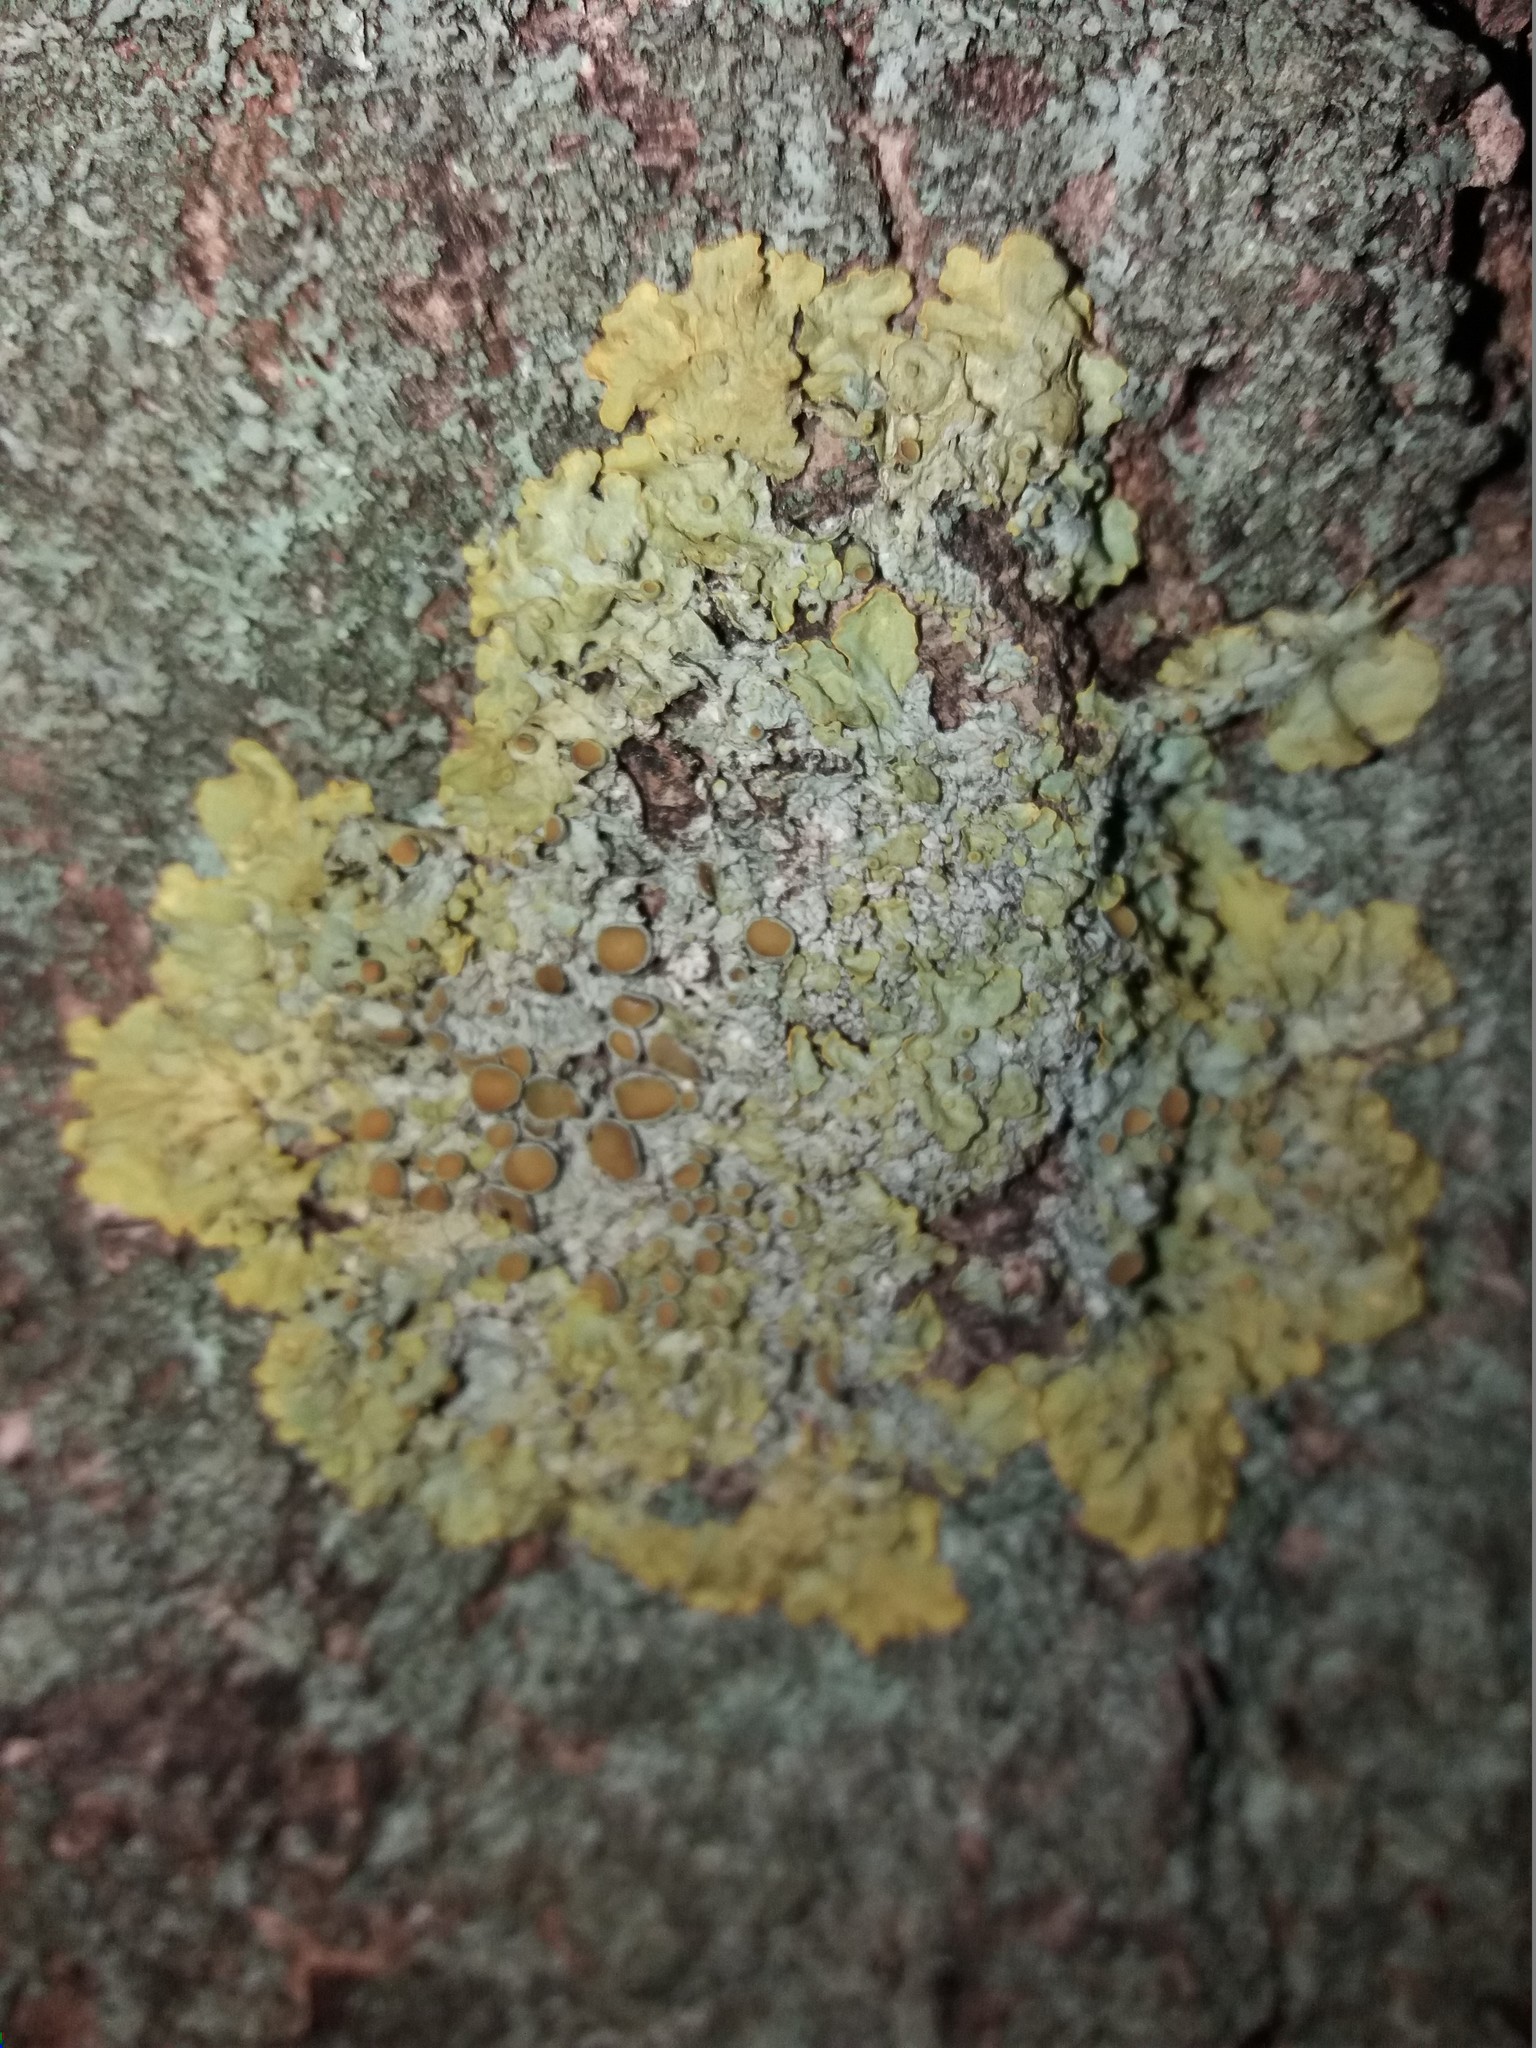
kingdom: Fungi
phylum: Ascomycota
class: Lecanoromycetes
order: Teloschistales
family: Teloschistaceae
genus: Xanthoria
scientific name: Xanthoria parietina
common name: Common orange lichen
